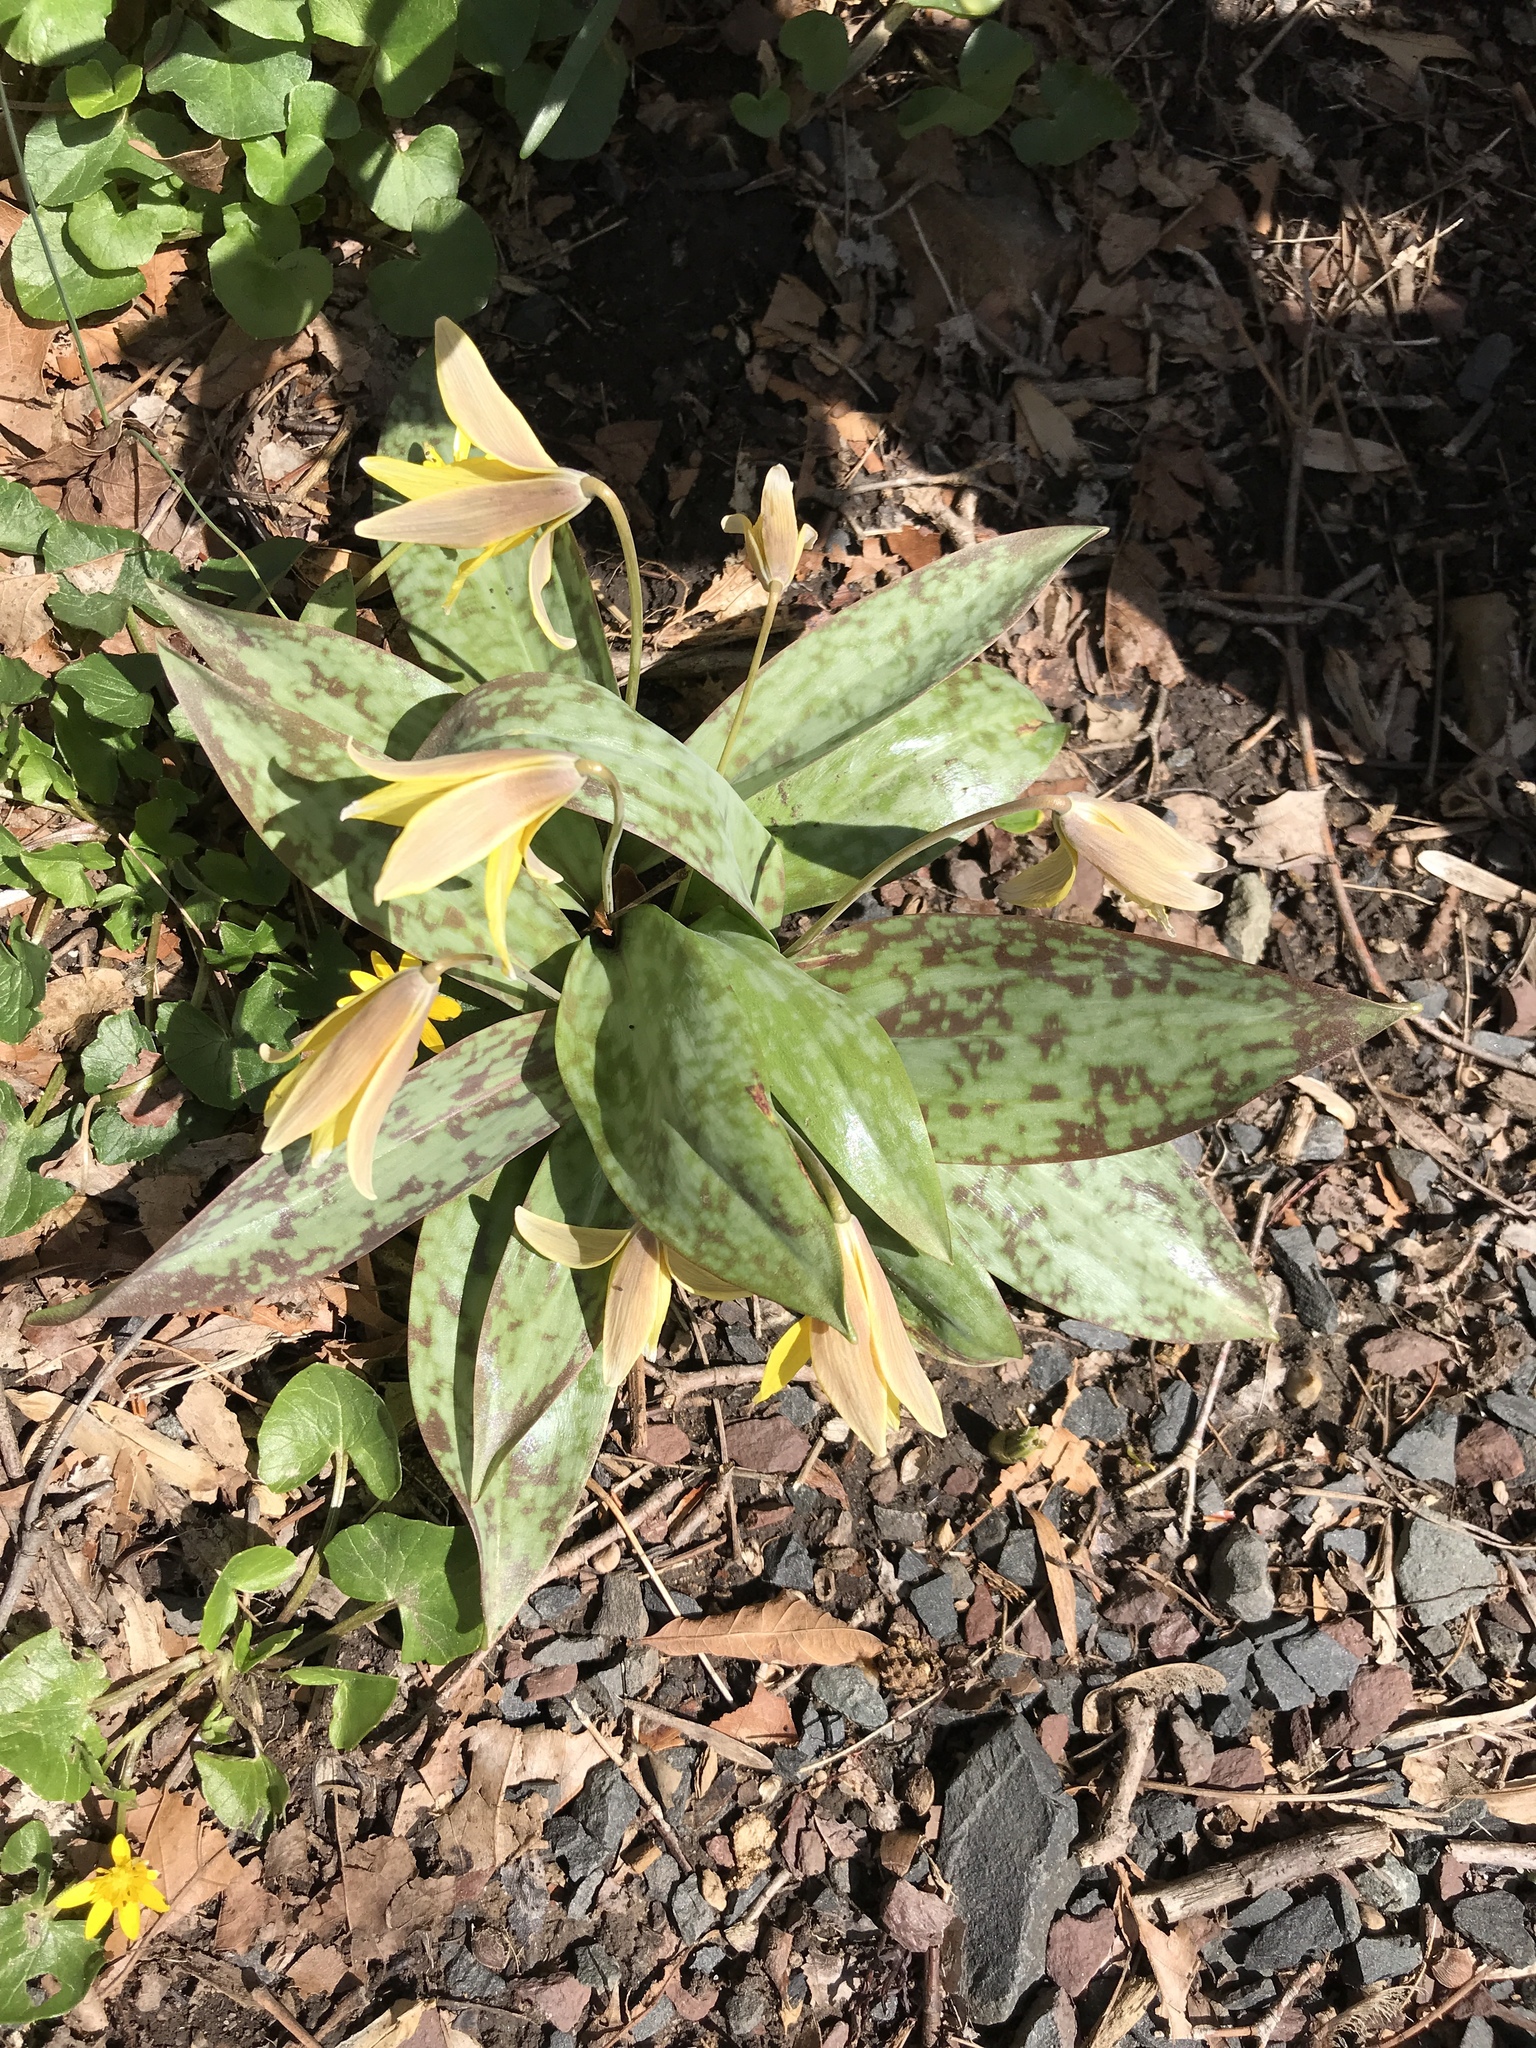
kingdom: Plantae
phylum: Tracheophyta
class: Liliopsida
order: Liliales
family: Liliaceae
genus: Erythronium
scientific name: Erythronium americanum
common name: Yellow adder's-tongue
